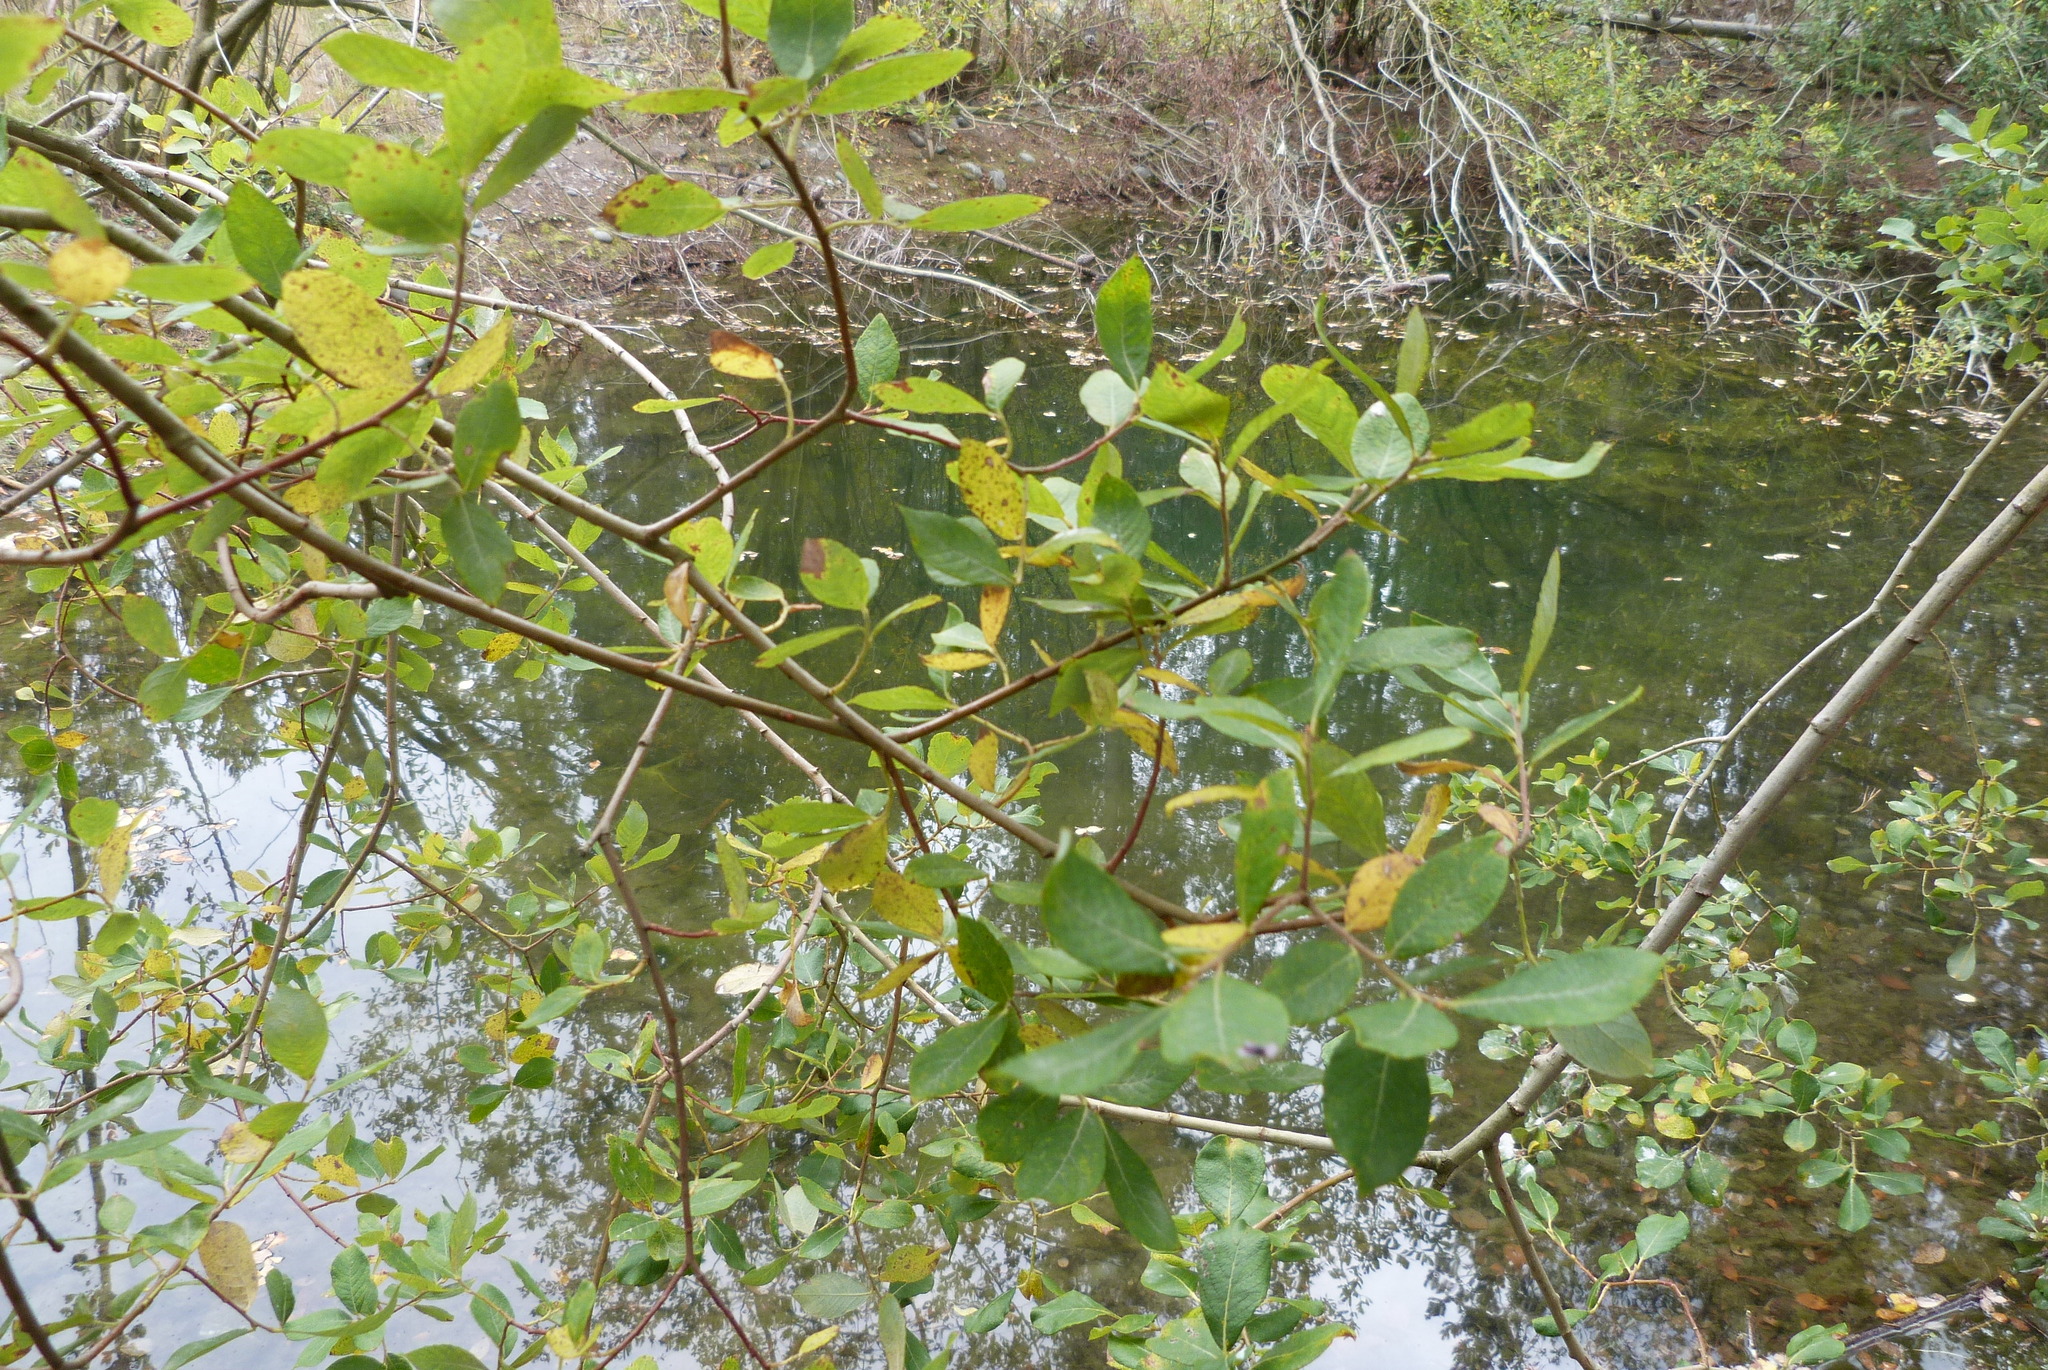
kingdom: Plantae
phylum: Tracheophyta
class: Magnoliopsida
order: Malpighiales
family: Salicaceae
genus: Salix
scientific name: Salix cinerea
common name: Common sallow
